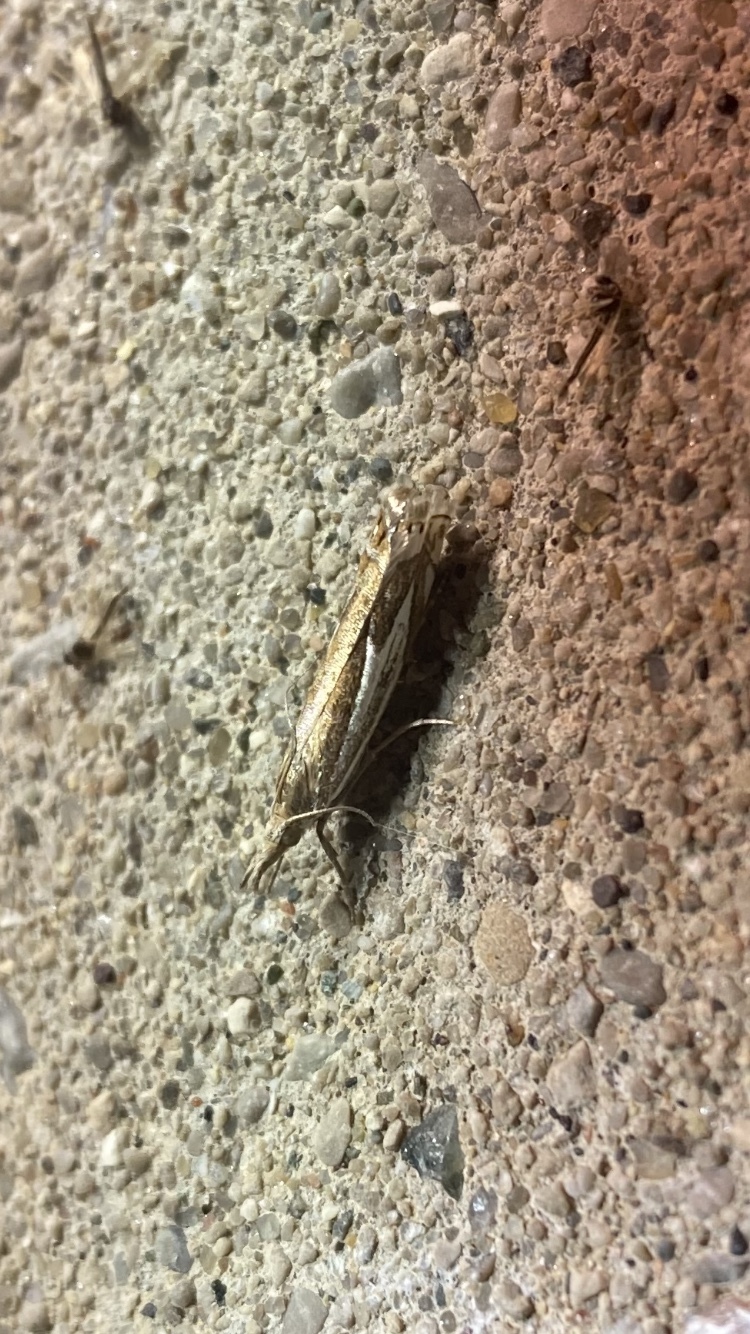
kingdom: Animalia
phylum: Arthropoda
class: Insecta
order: Lepidoptera
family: Crambidae
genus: Crambus
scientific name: Crambus bidens
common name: Forked grass-veneer
